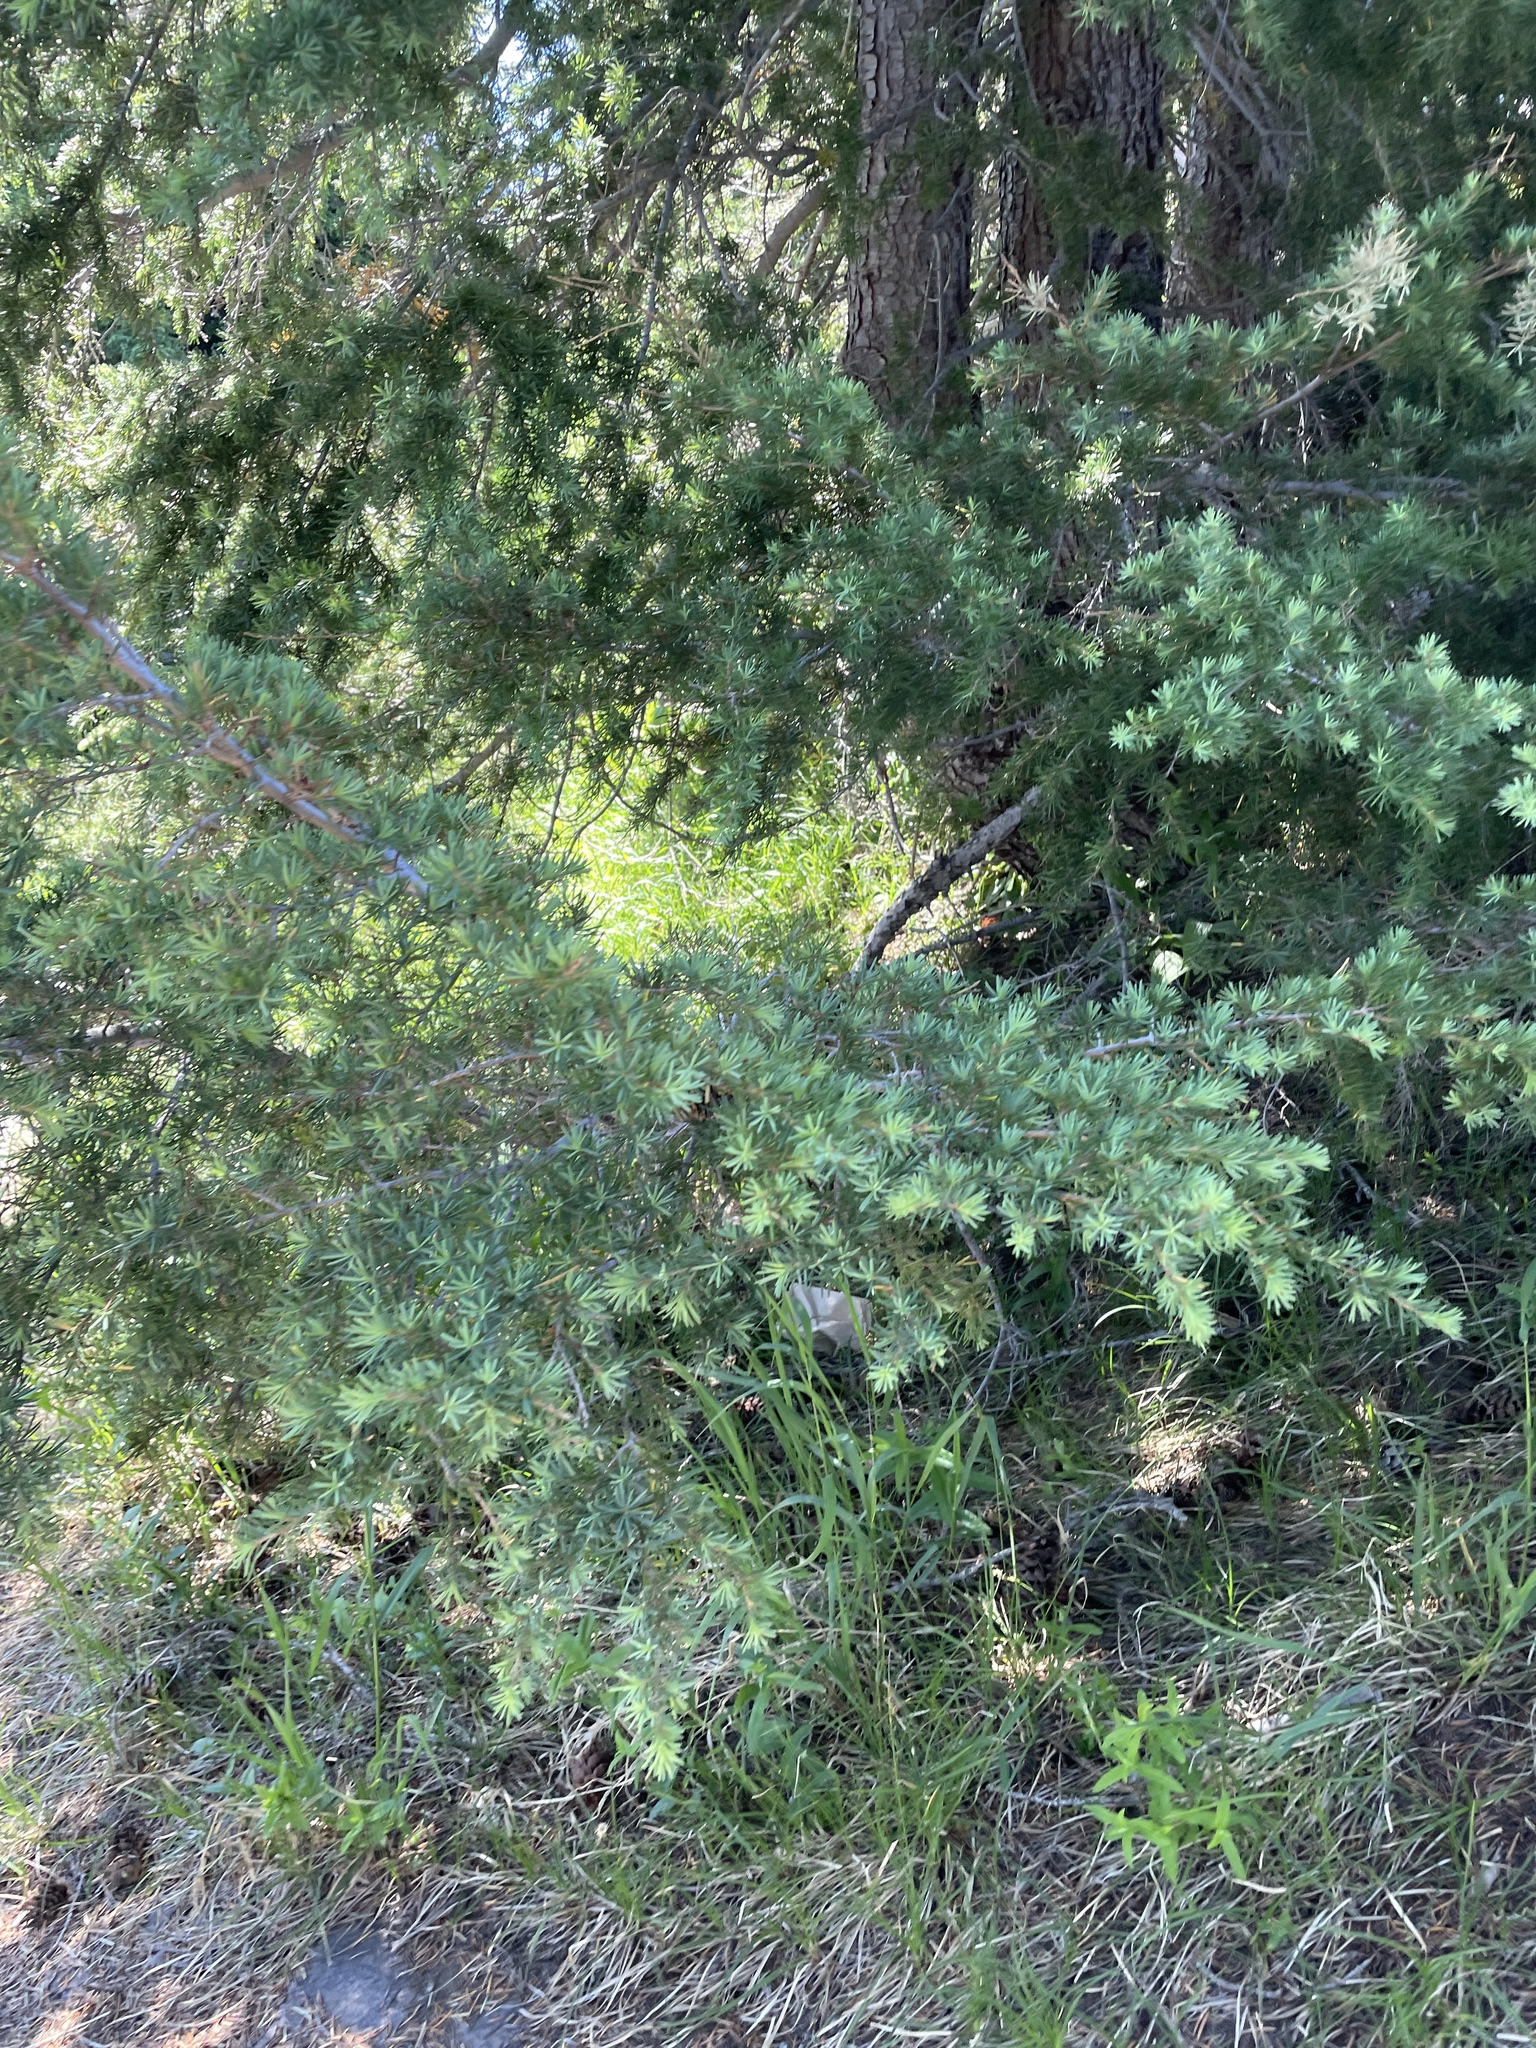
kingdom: Plantae
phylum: Tracheophyta
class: Pinopsida
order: Pinales
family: Pinaceae
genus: Tsuga
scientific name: Tsuga mertensiana
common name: Mountain hemlock
